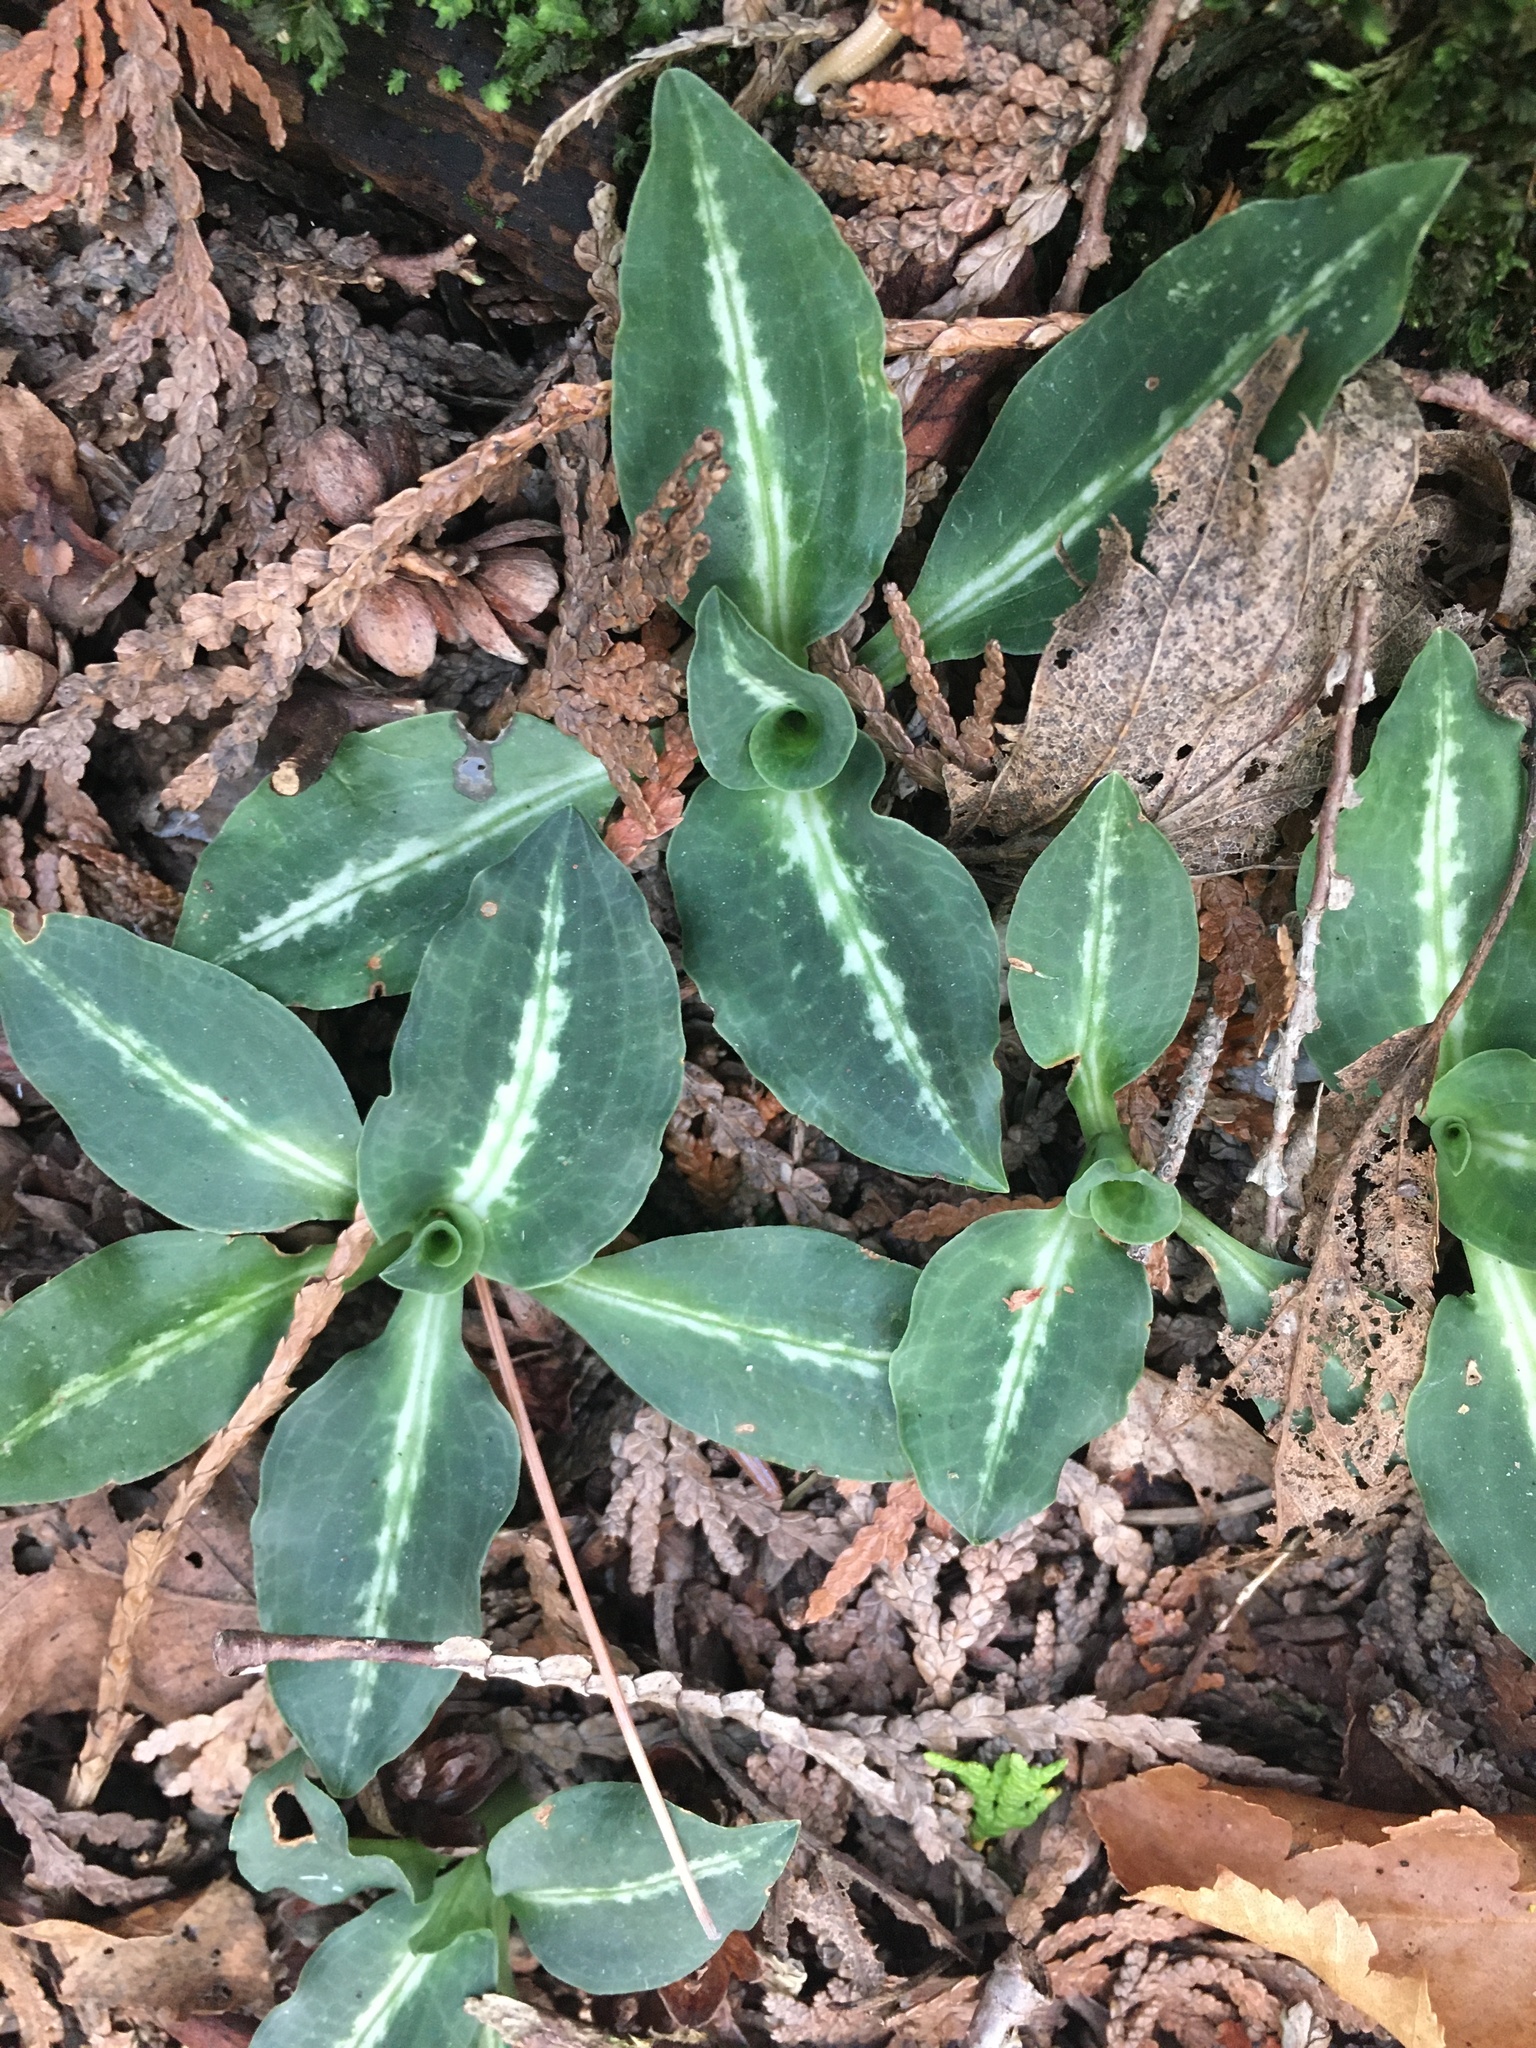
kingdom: Plantae
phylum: Tracheophyta
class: Liliopsida
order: Asparagales
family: Orchidaceae
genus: Goodyera
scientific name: Goodyera oblongifolia
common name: Giant rattlesnake-plantain
